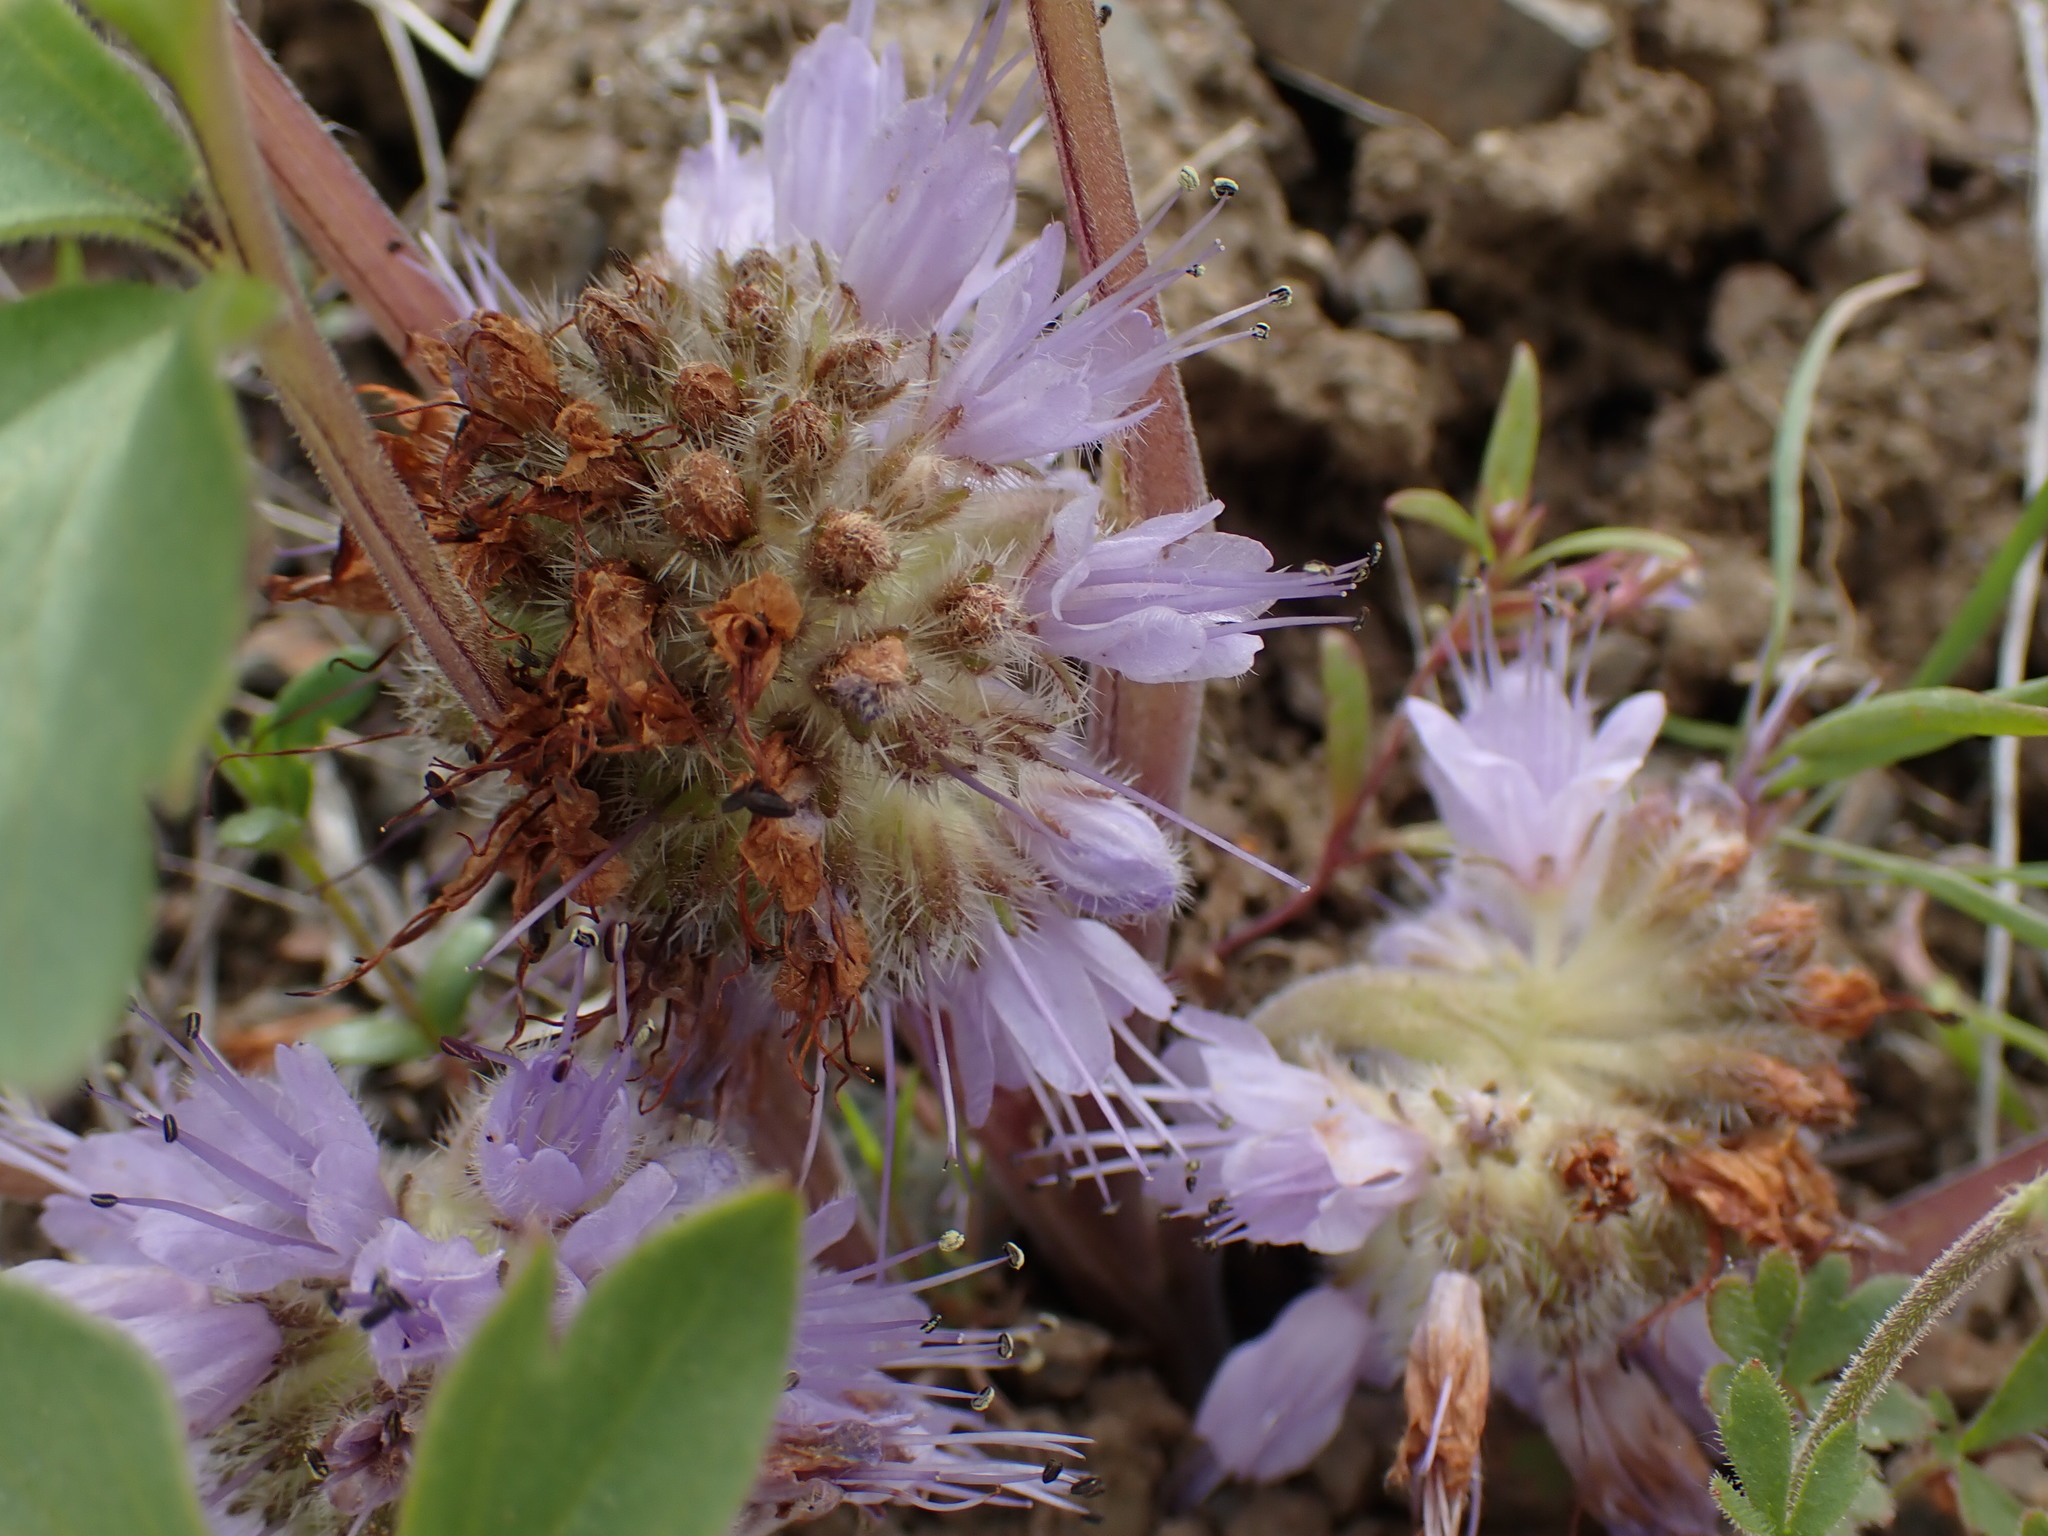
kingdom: Plantae
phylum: Tracheophyta
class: Magnoliopsida
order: Boraginales
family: Hydrophyllaceae
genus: Hydrophyllum
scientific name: Hydrophyllum capitatum
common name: Woollen-breeches
